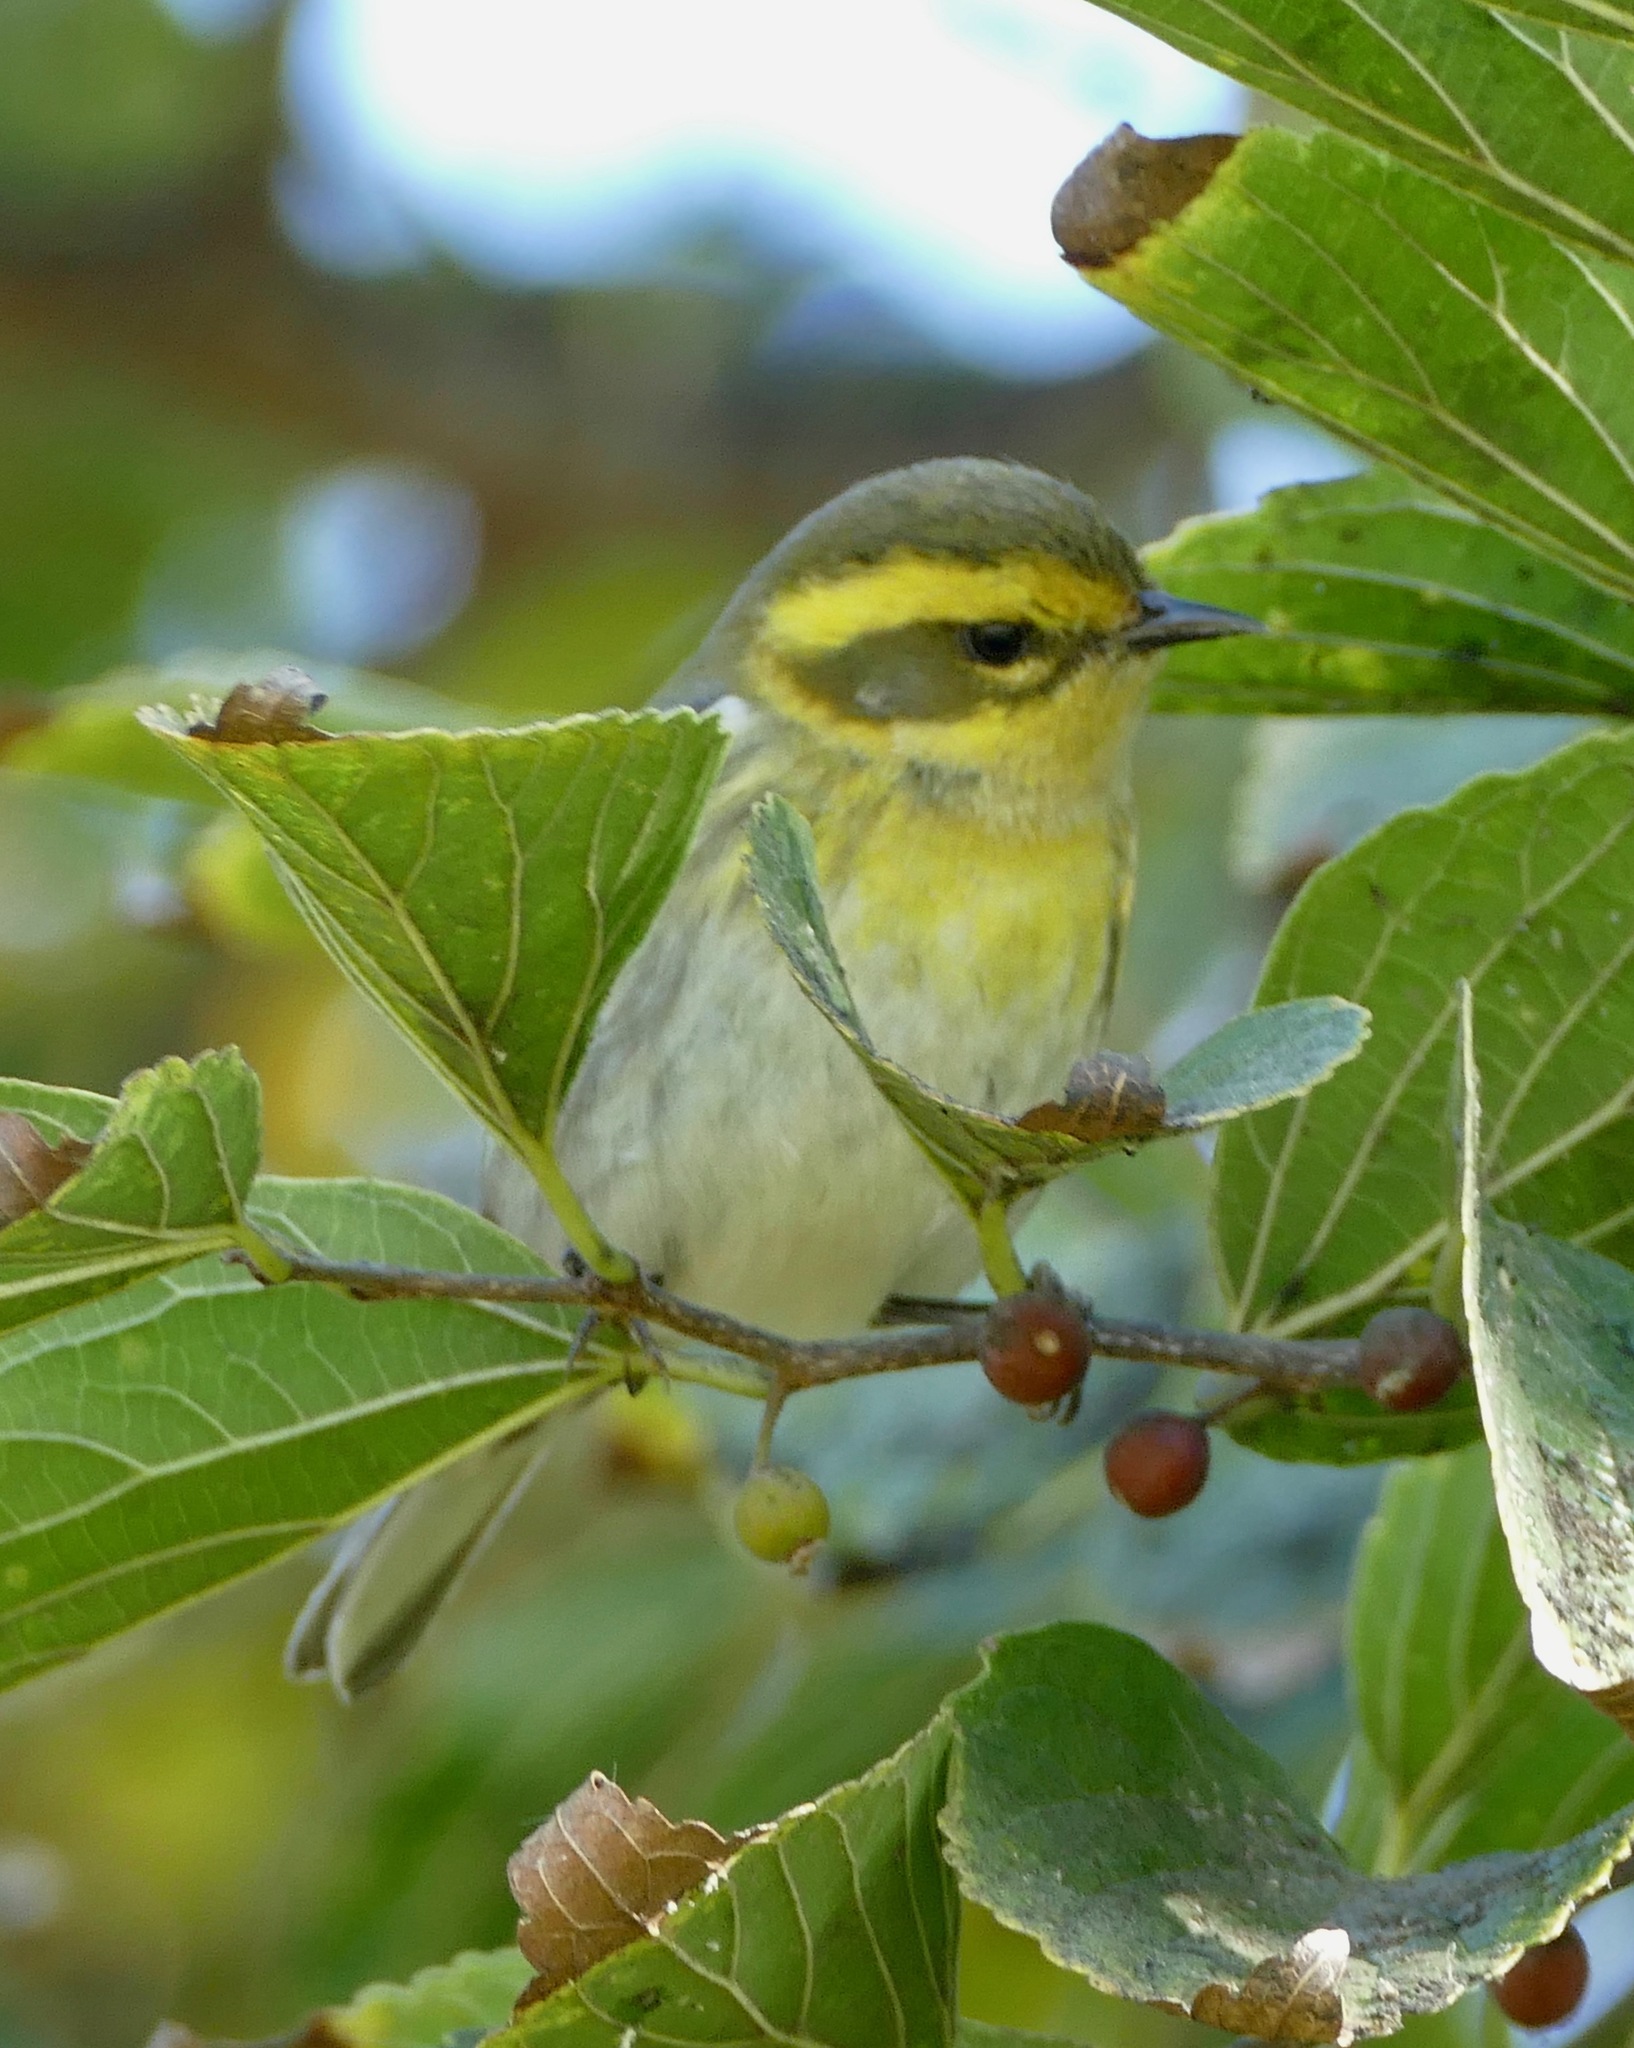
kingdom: Animalia
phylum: Chordata
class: Aves
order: Passeriformes
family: Parulidae
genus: Setophaga
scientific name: Setophaga townsendi
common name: Townsend's warbler
